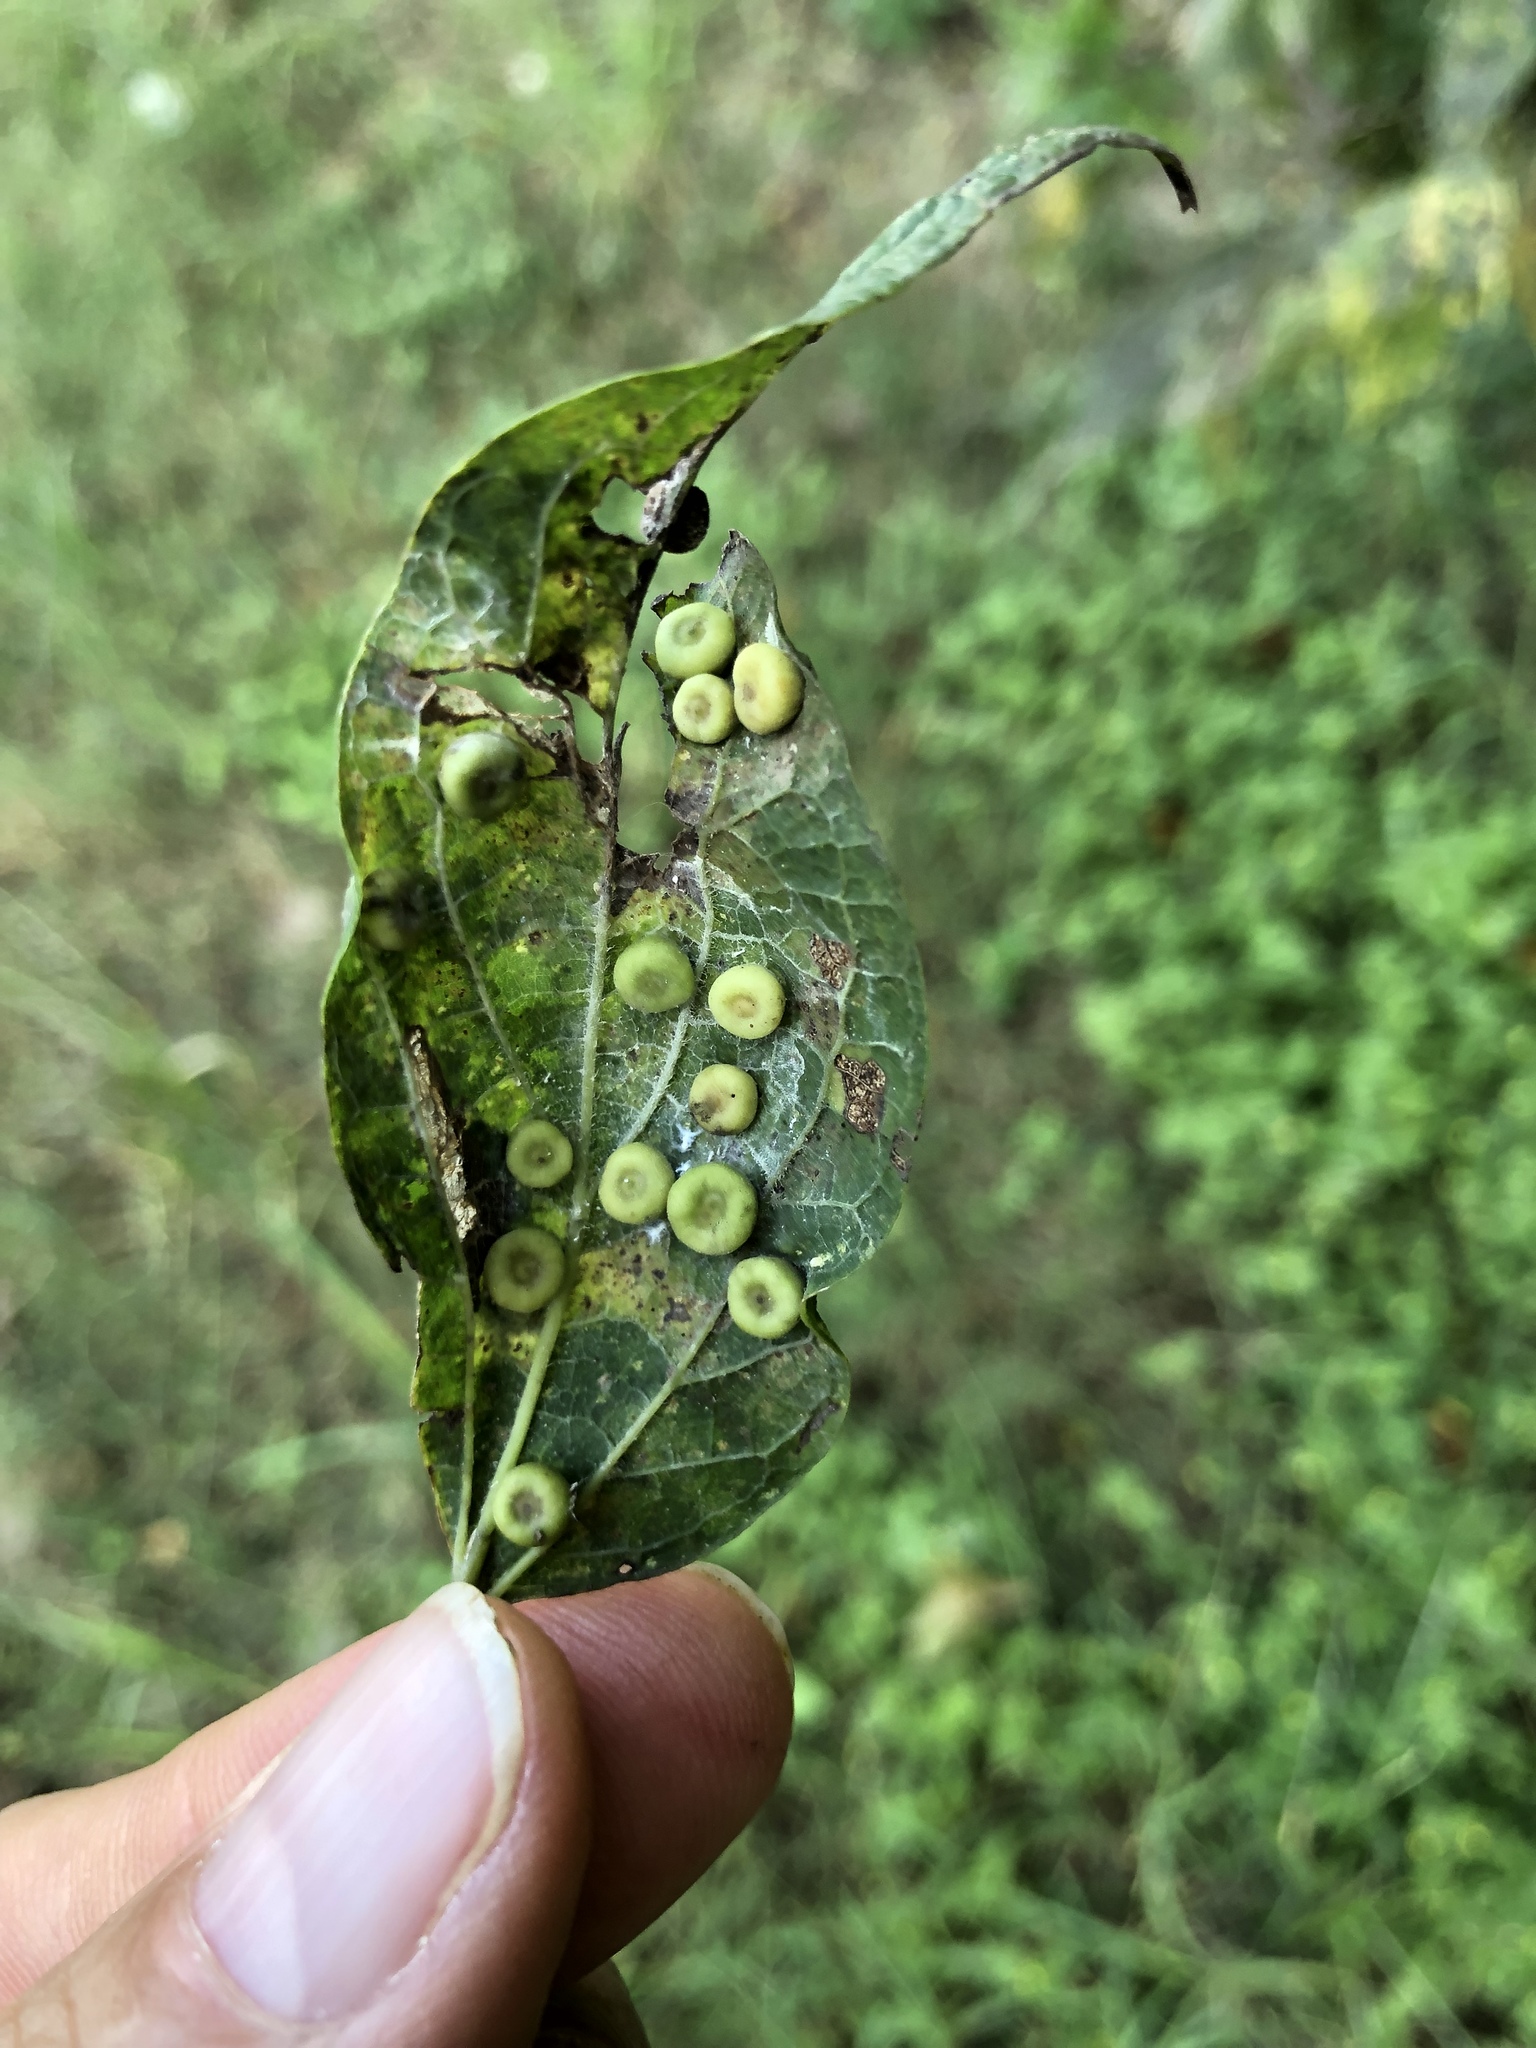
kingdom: Animalia
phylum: Arthropoda
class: Insecta
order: Hemiptera
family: Aphalaridae
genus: Pachypsylla
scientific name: Pachypsylla celtidismamma
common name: Hackberry nipplegall psyllid
